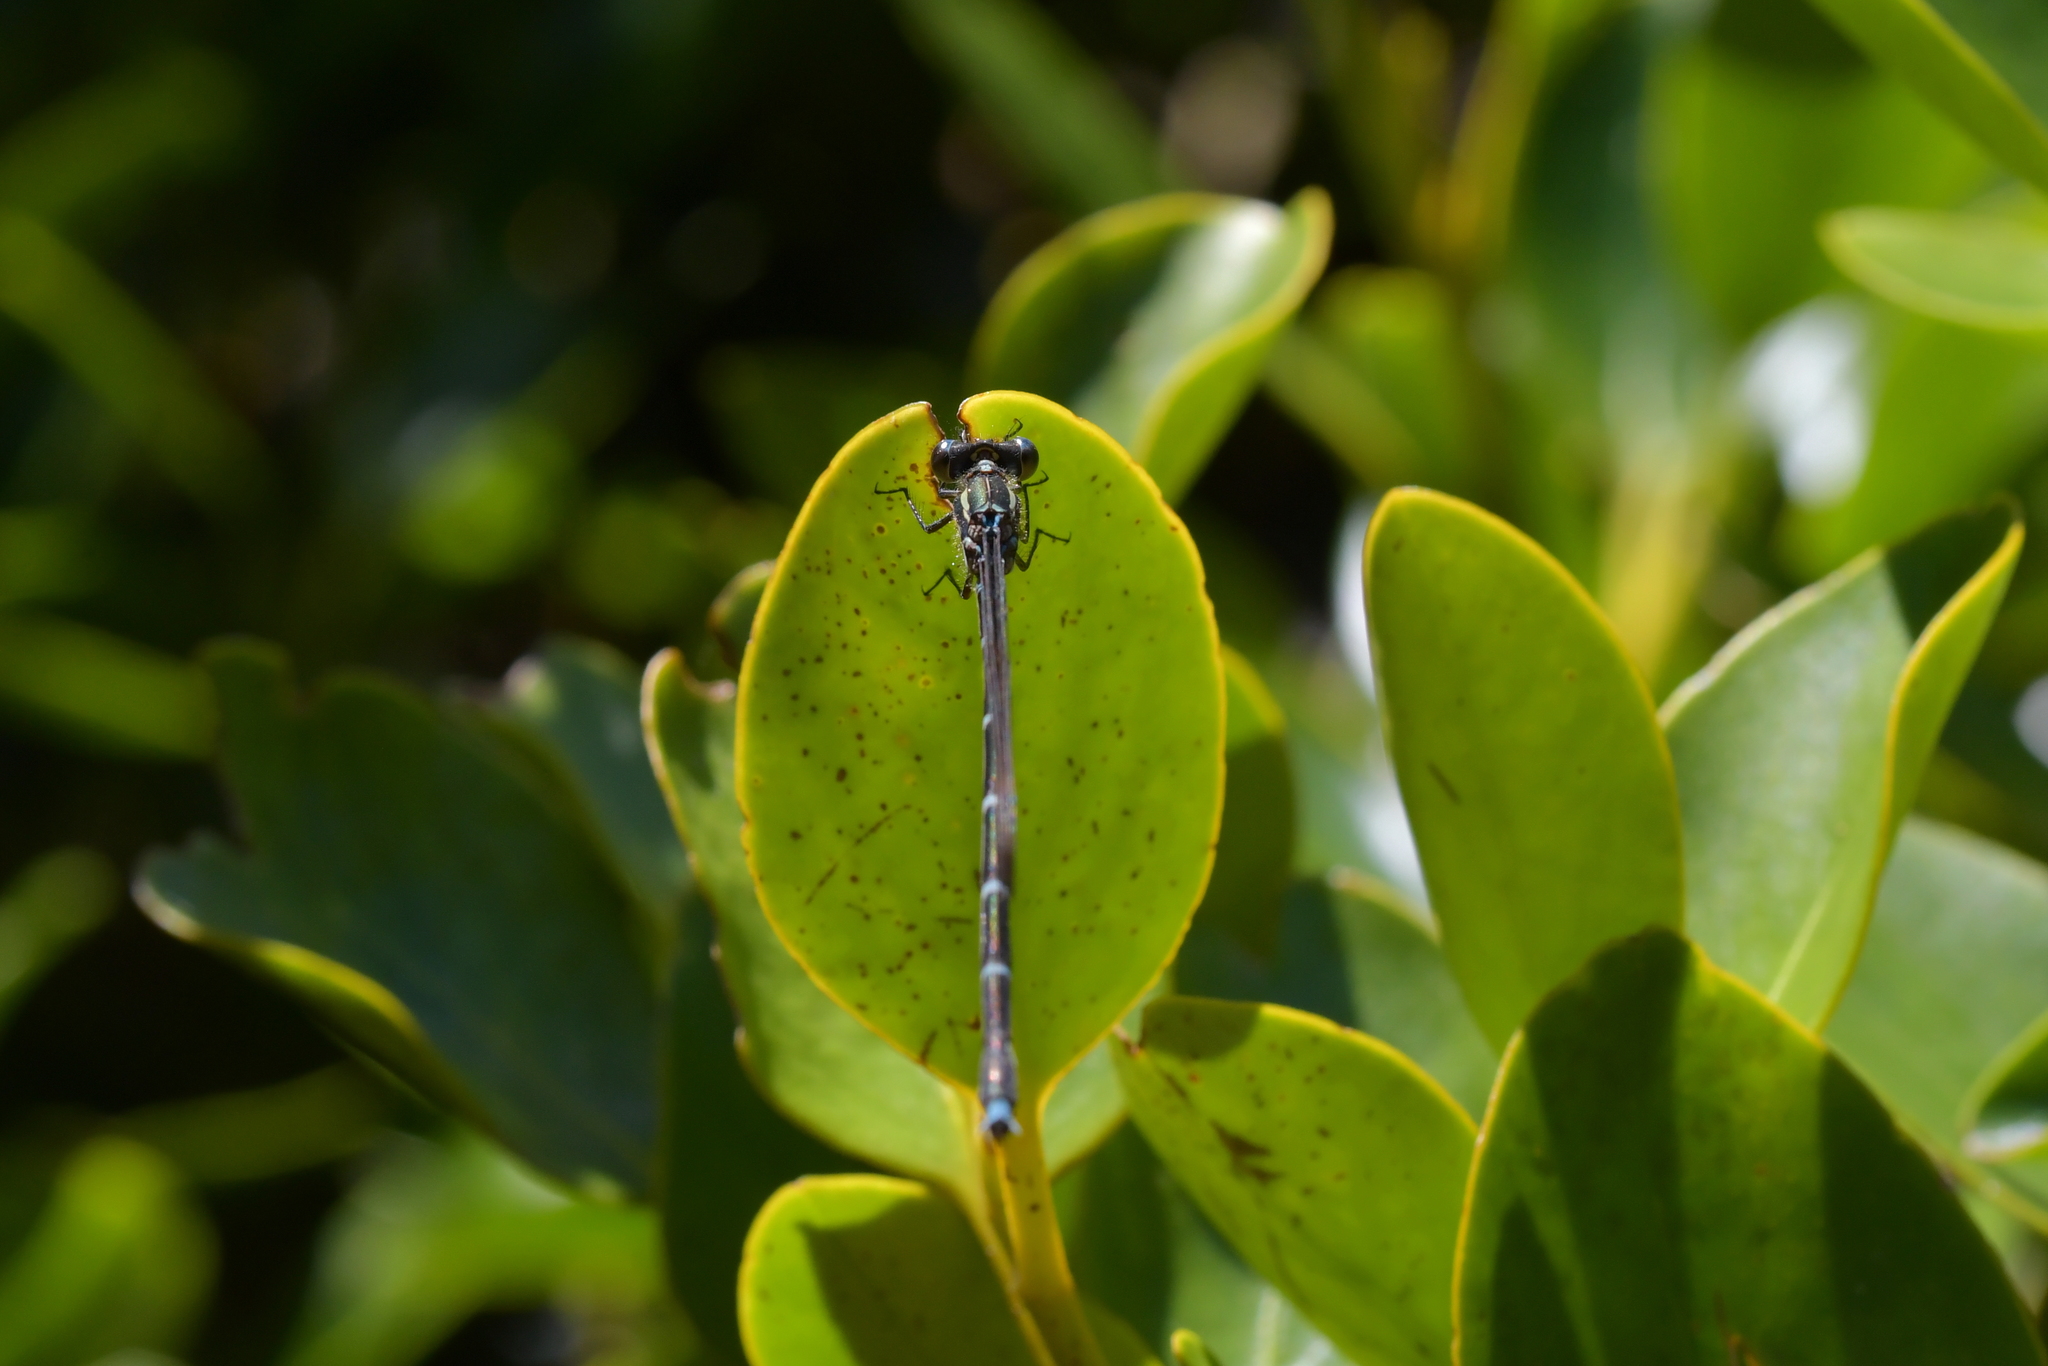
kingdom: Animalia
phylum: Arthropoda
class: Insecta
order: Odonata
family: Lestidae
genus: Austrolestes
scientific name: Austrolestes colensonis
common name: Blue damselfly
